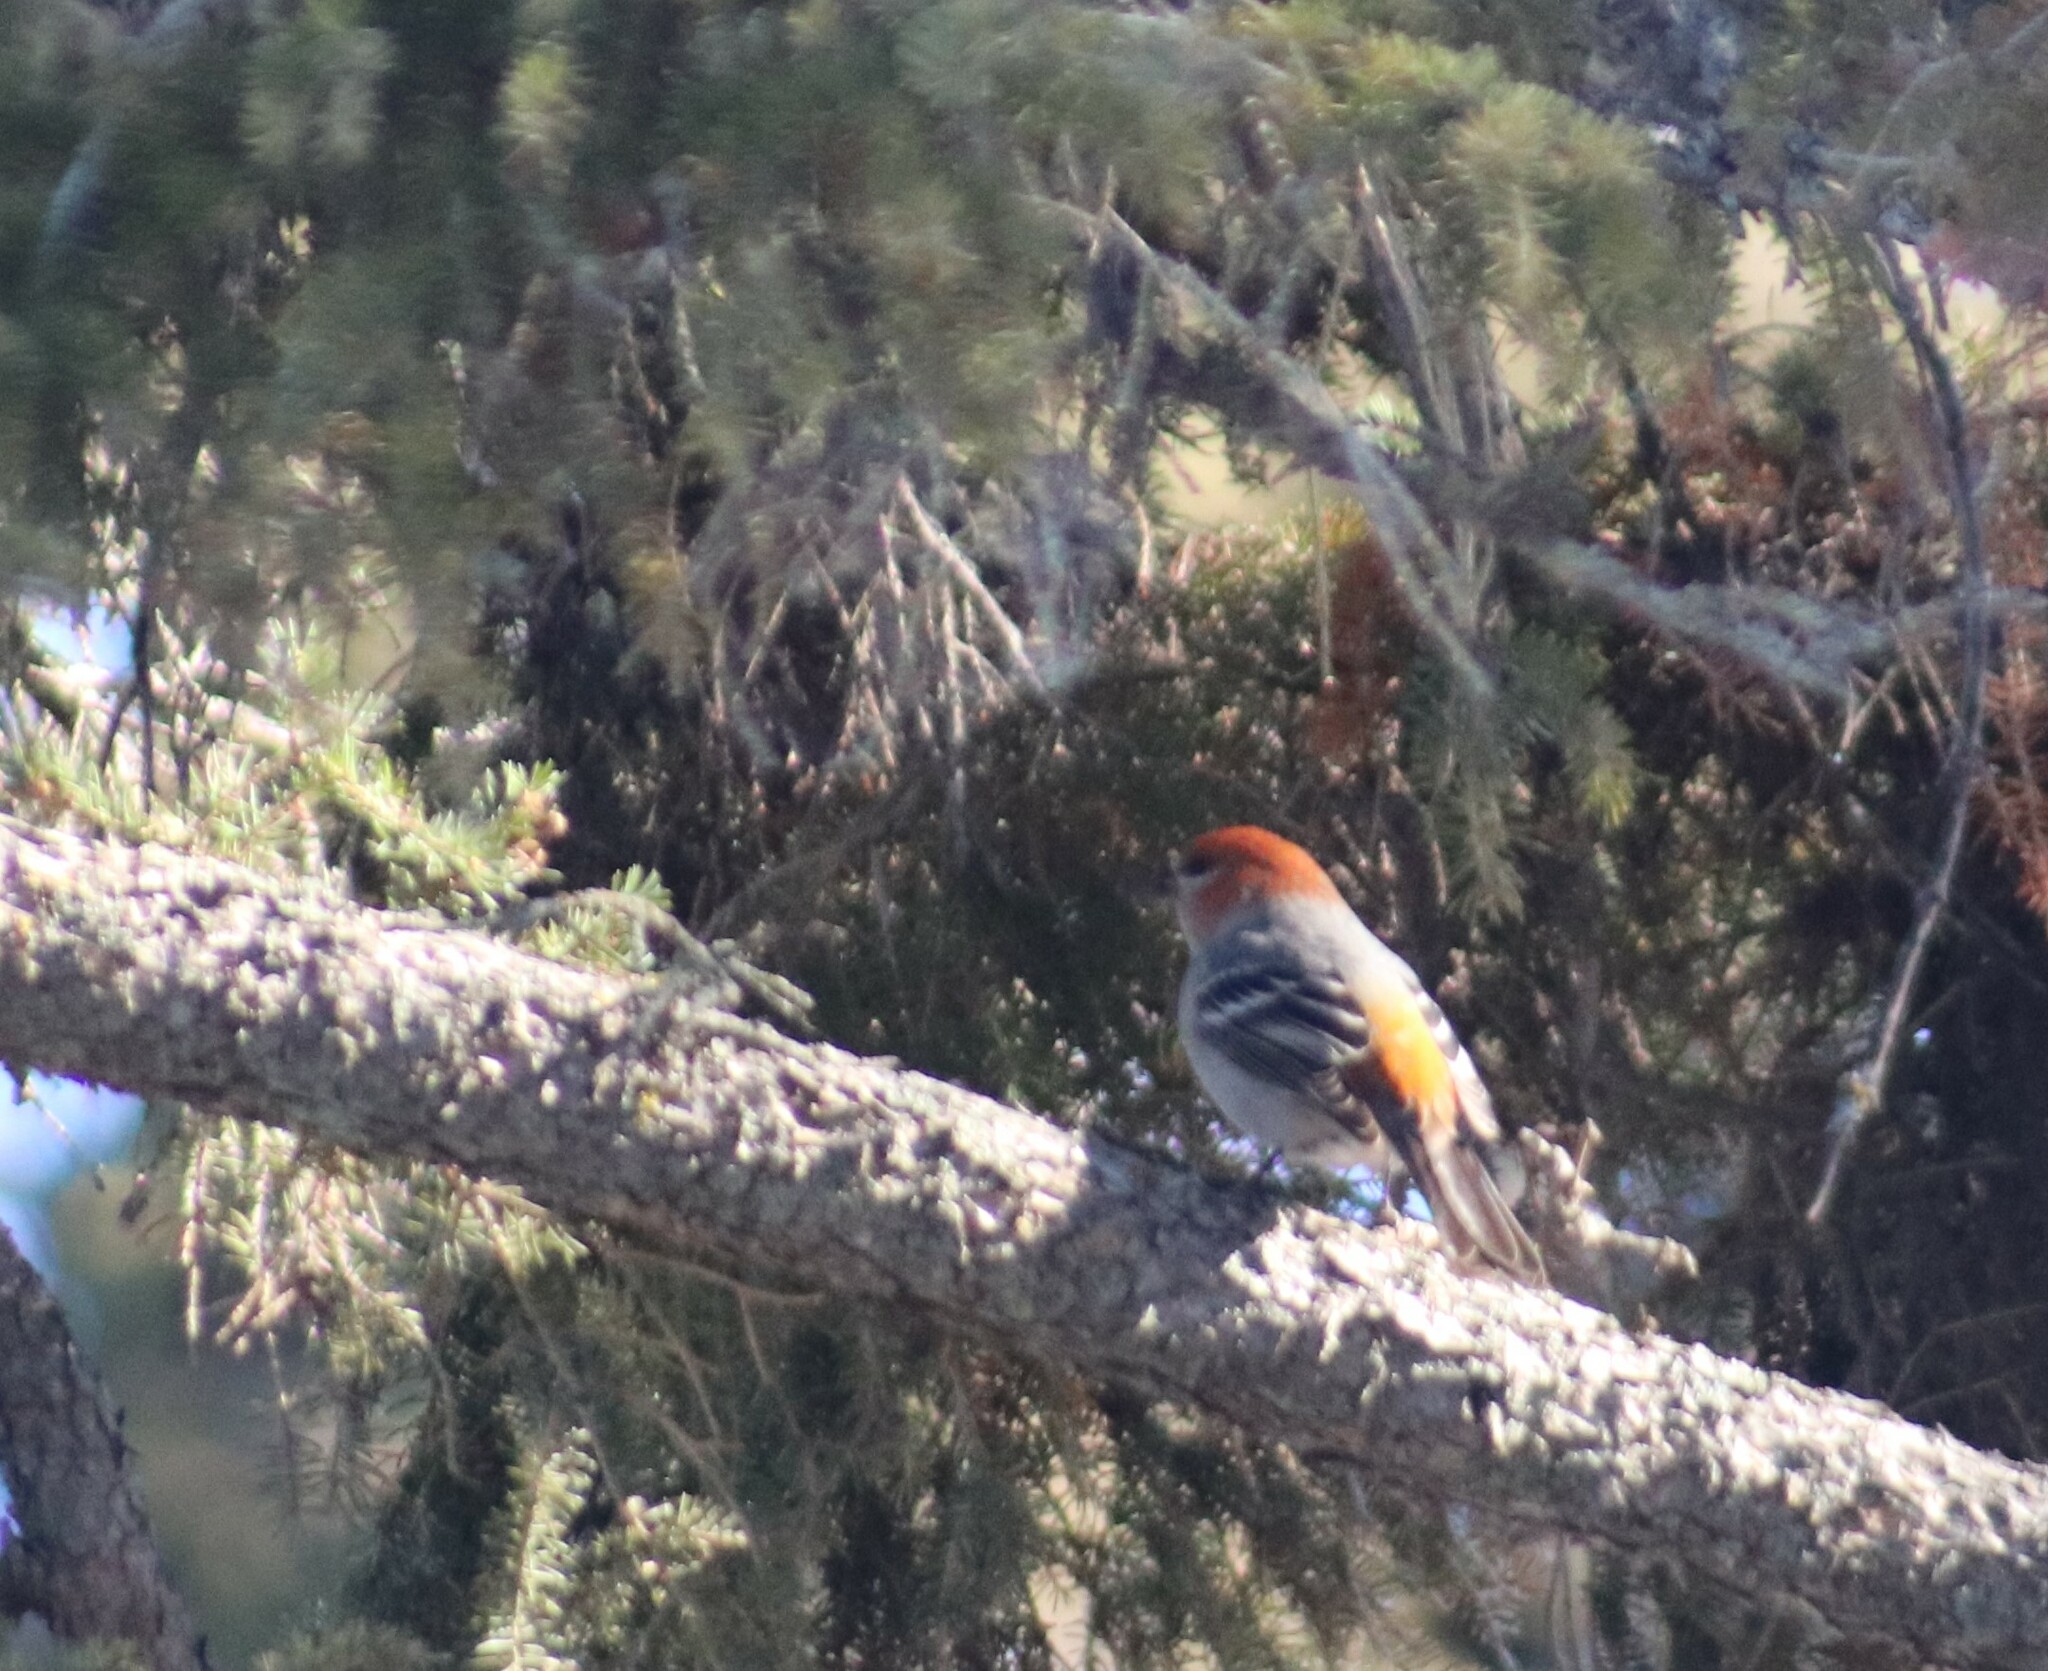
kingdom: Animalia
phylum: Chordata
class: Aves
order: Passeriformes
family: Fringillidae
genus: Pinicola
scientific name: Pinicola enucleator
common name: Pine grosbeak
